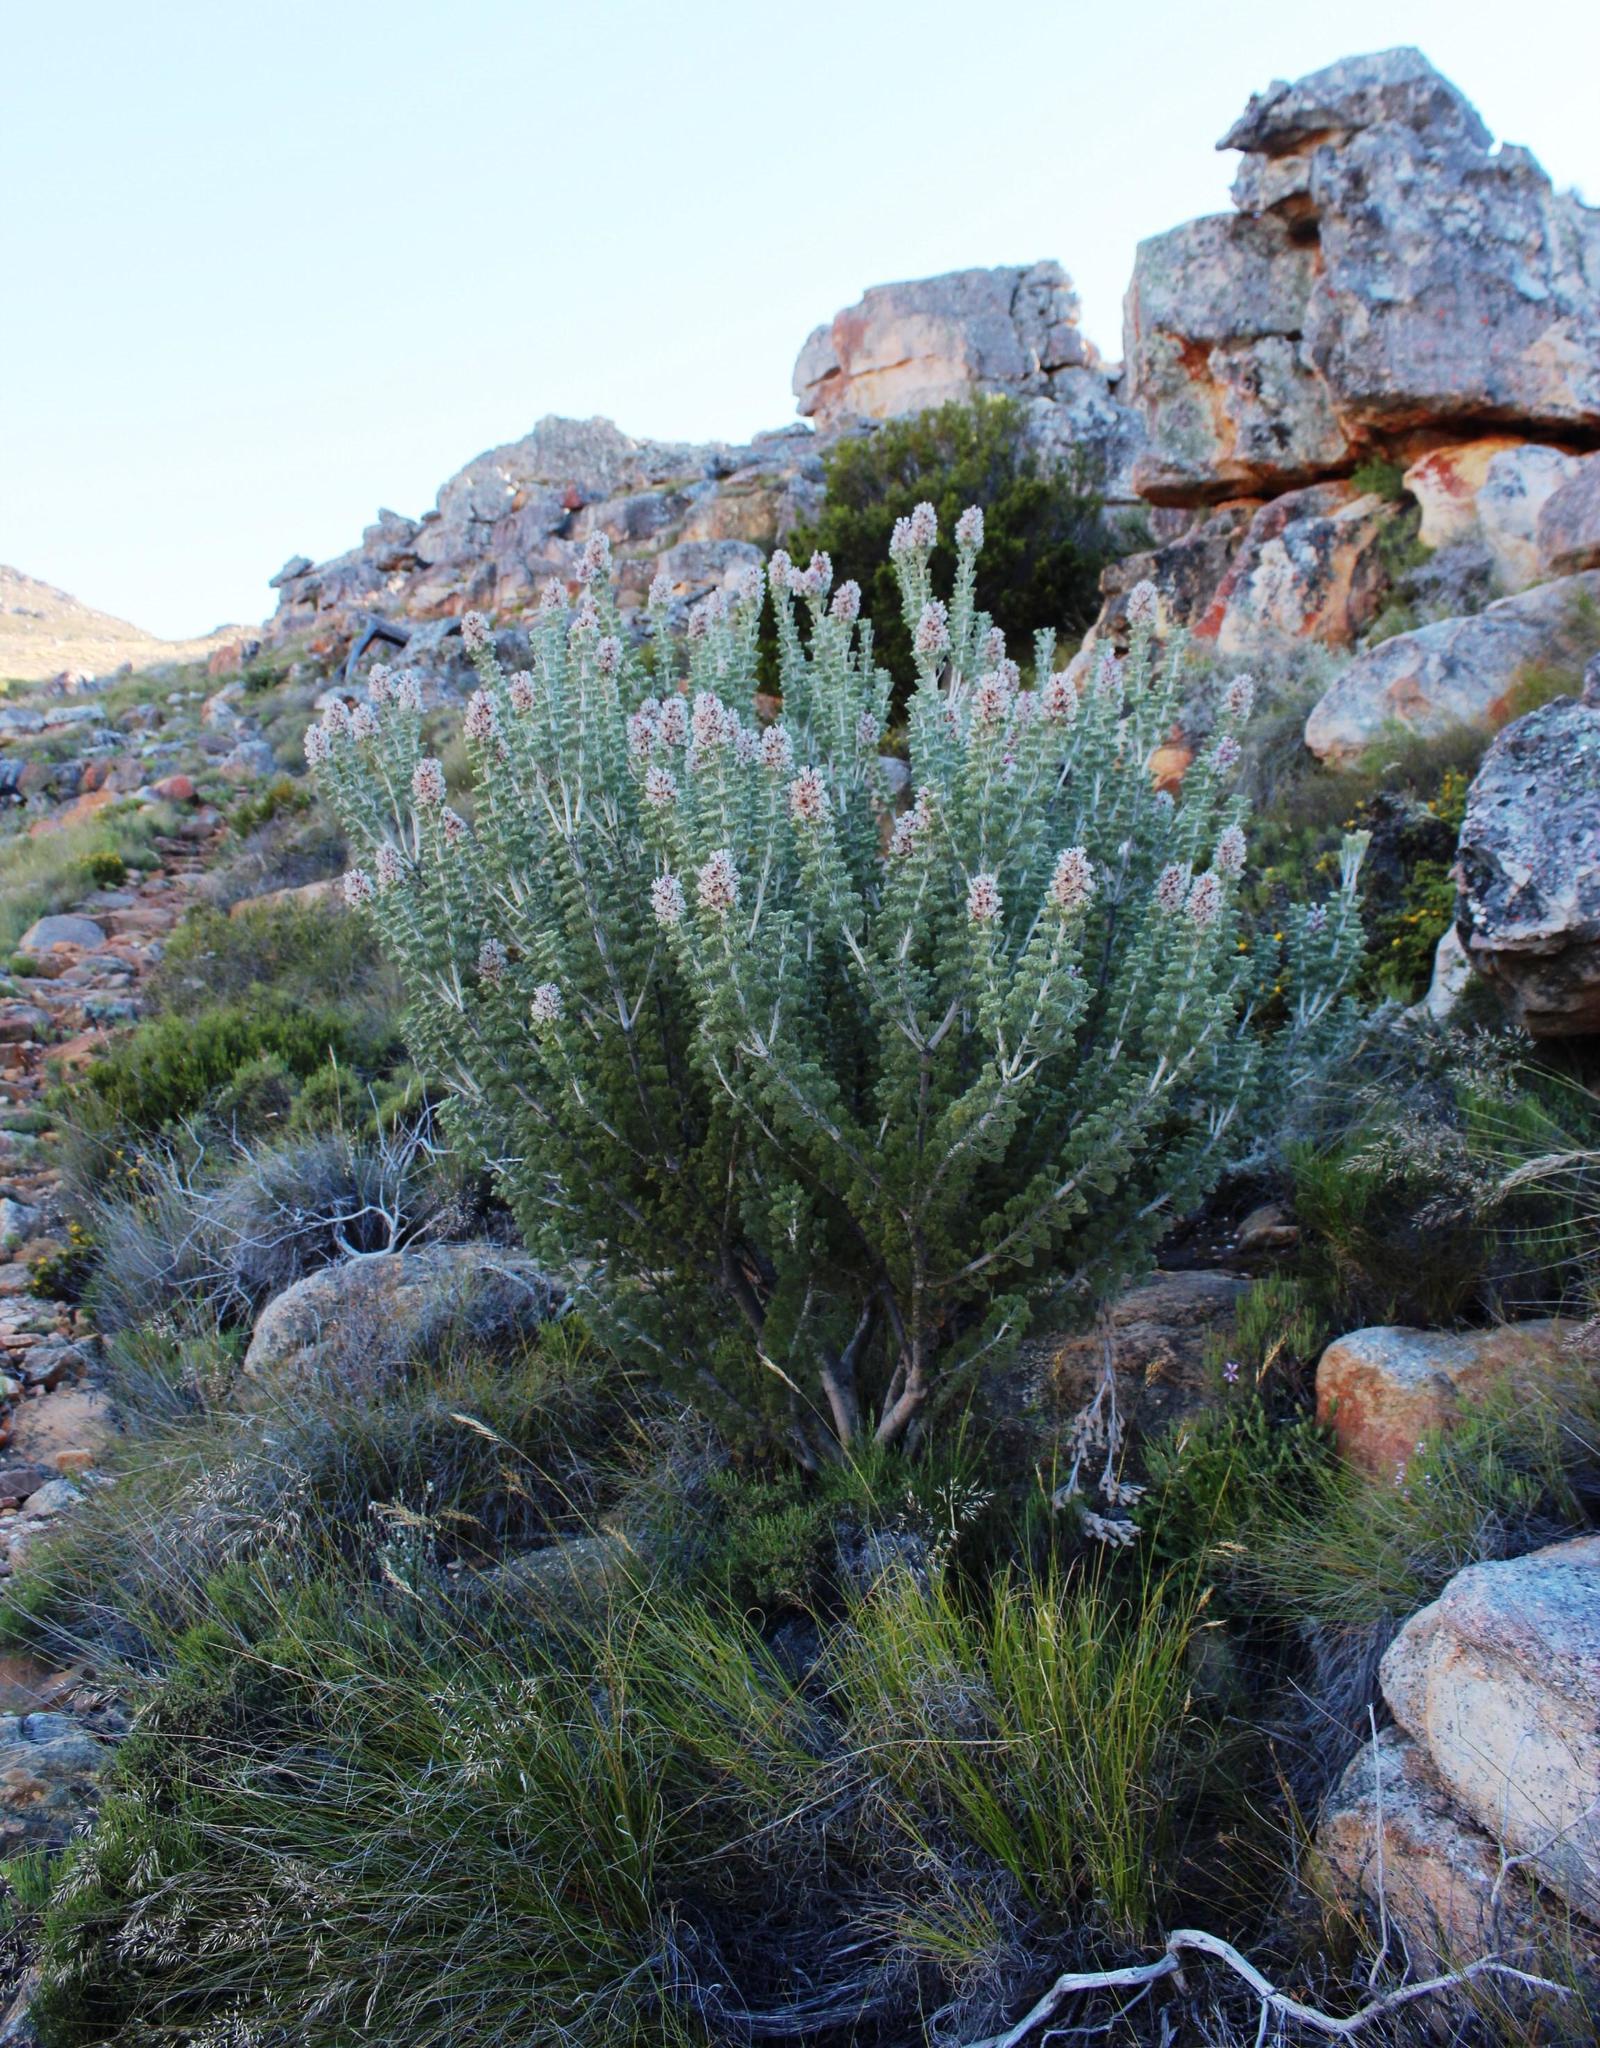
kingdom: Plantae
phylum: Tracheophyta
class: Magnoliopsida
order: Proteales
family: Proteaceae
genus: Paranomus
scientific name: Paranomus tomentosus
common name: Hairy-leaf tree sceptre
